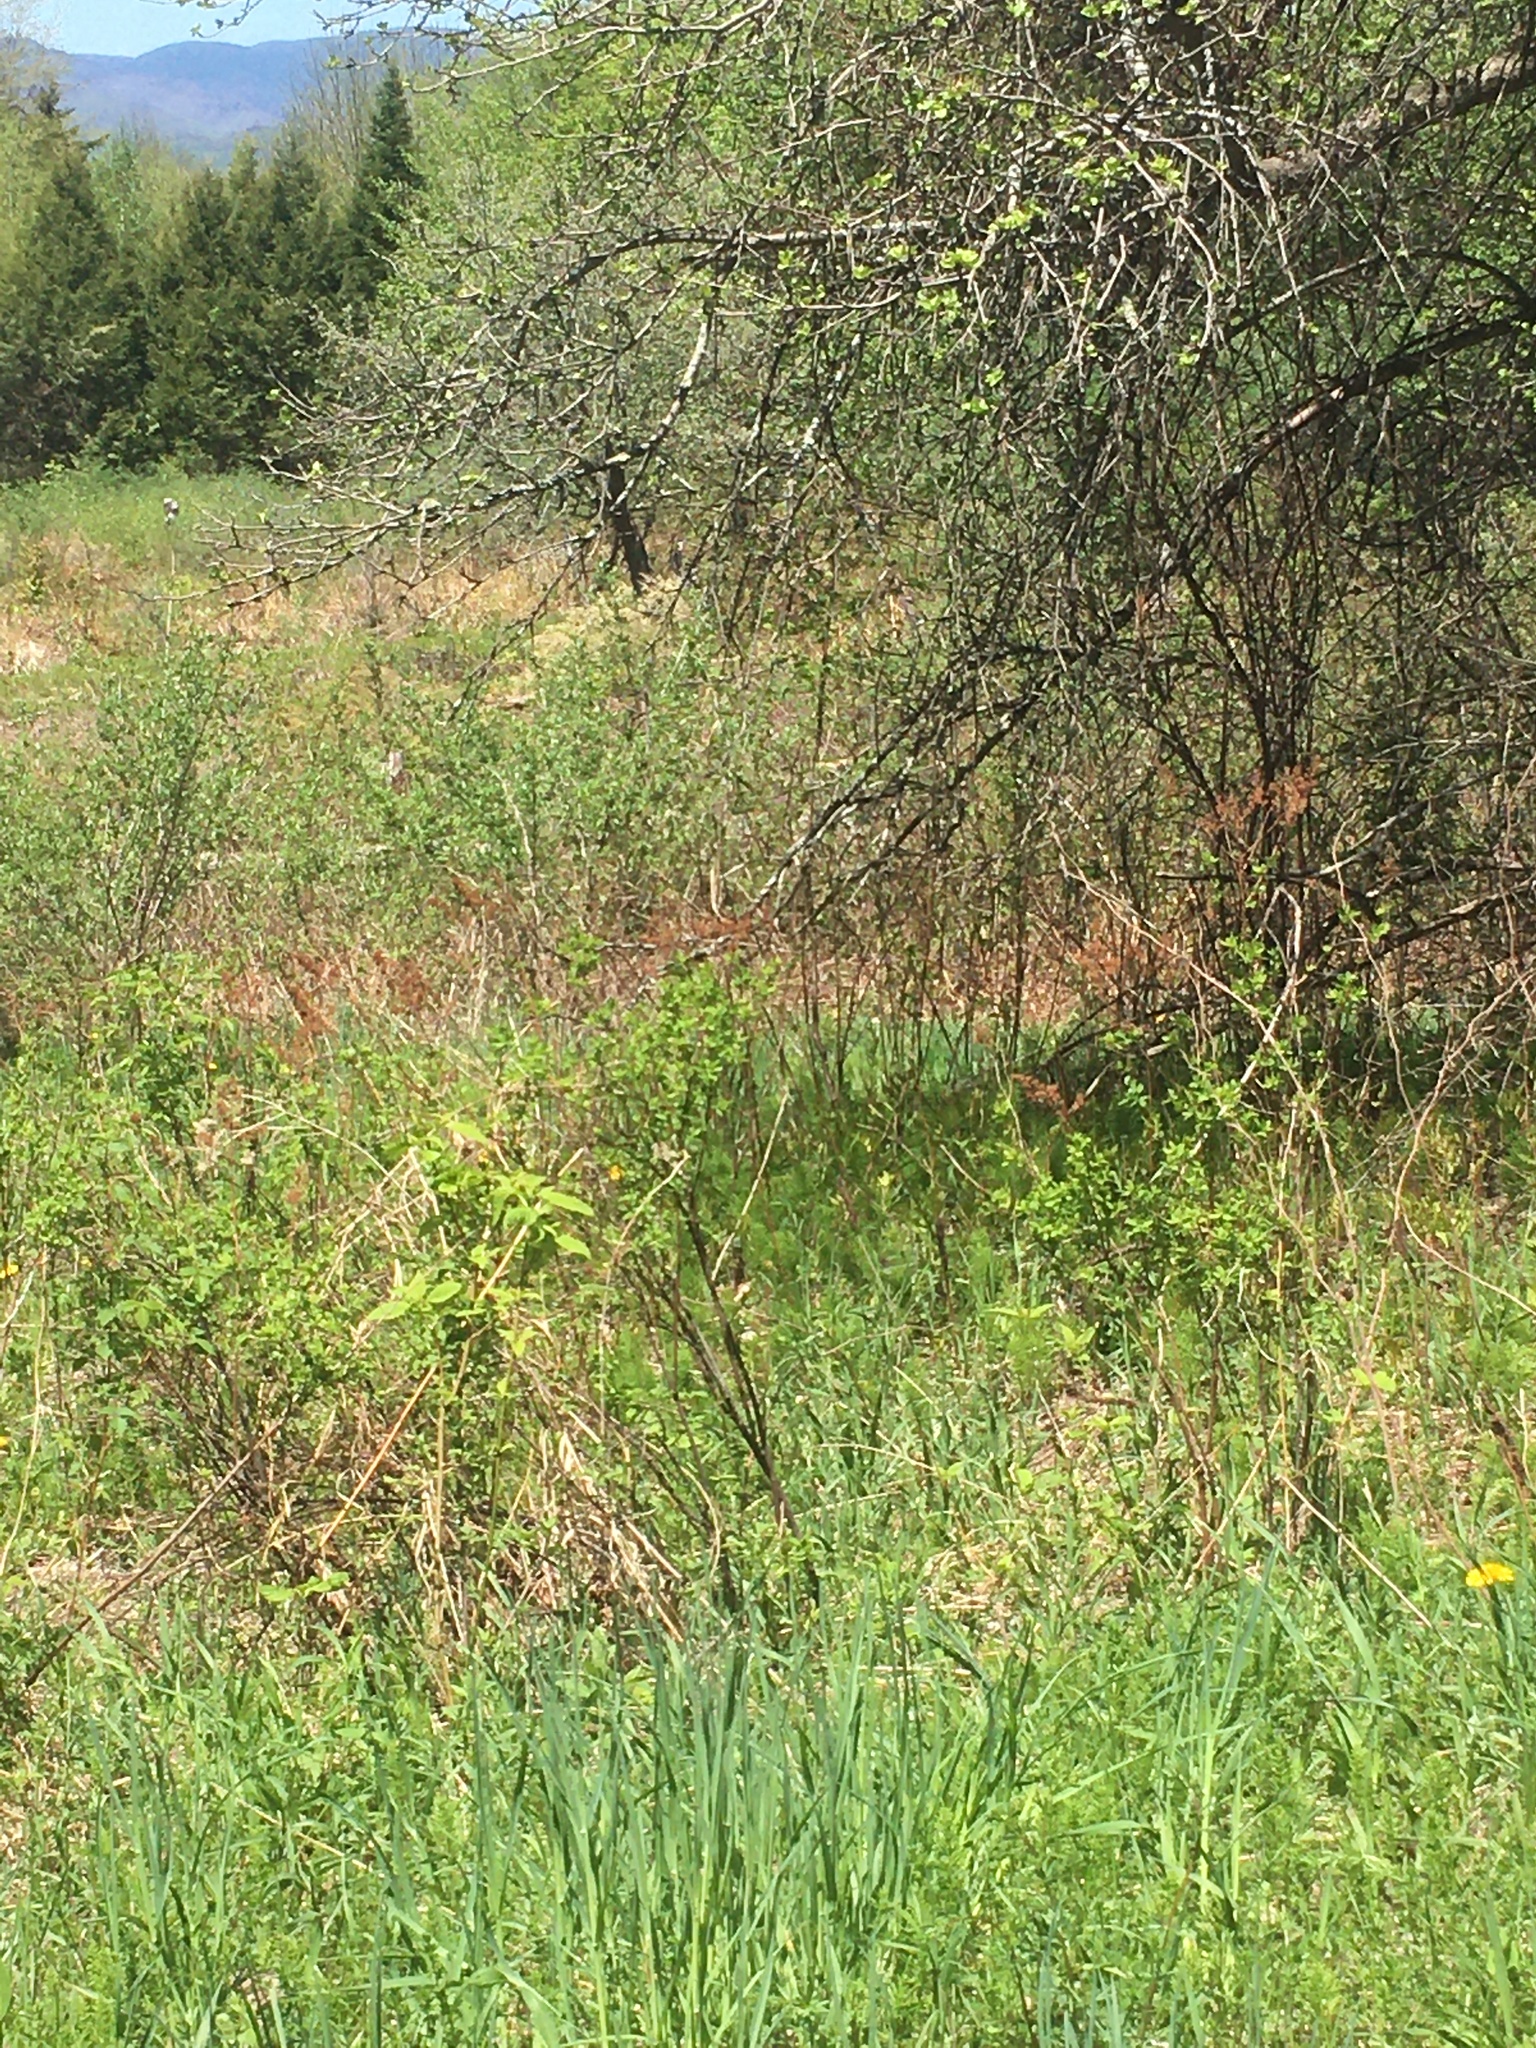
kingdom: Plantae
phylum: Tracheophyta
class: Magnoliopsida
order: Rosales
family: Rosaceae
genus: Spiraea
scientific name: Spiraea alba
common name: Pale bridewort
